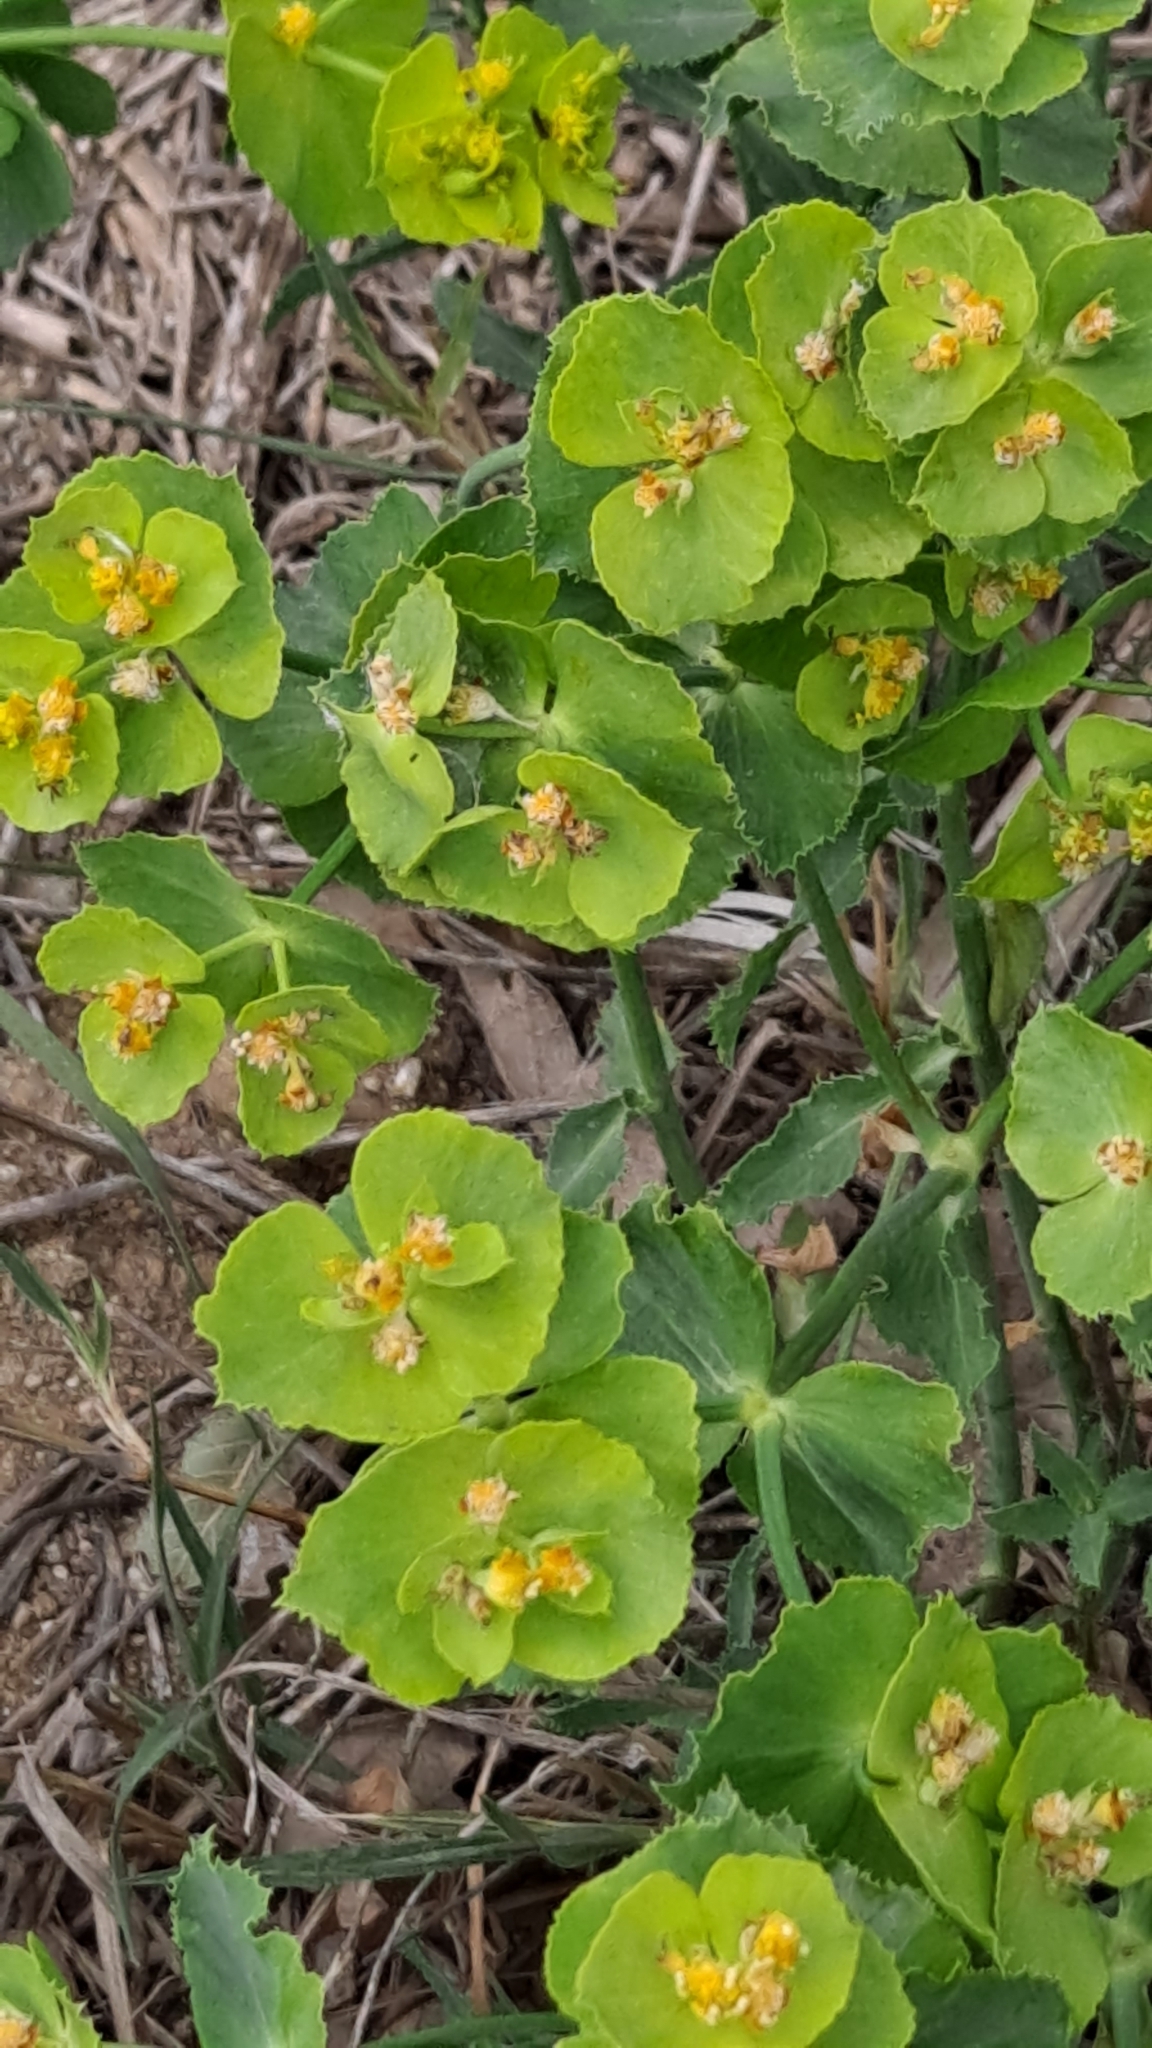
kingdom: Plantae
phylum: Tracheophyta
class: Magnoliopsida
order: Malpighiales
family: Euphorbiaceae
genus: Euphorbia
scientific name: Euphorbia serrata
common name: Serrate spurge
